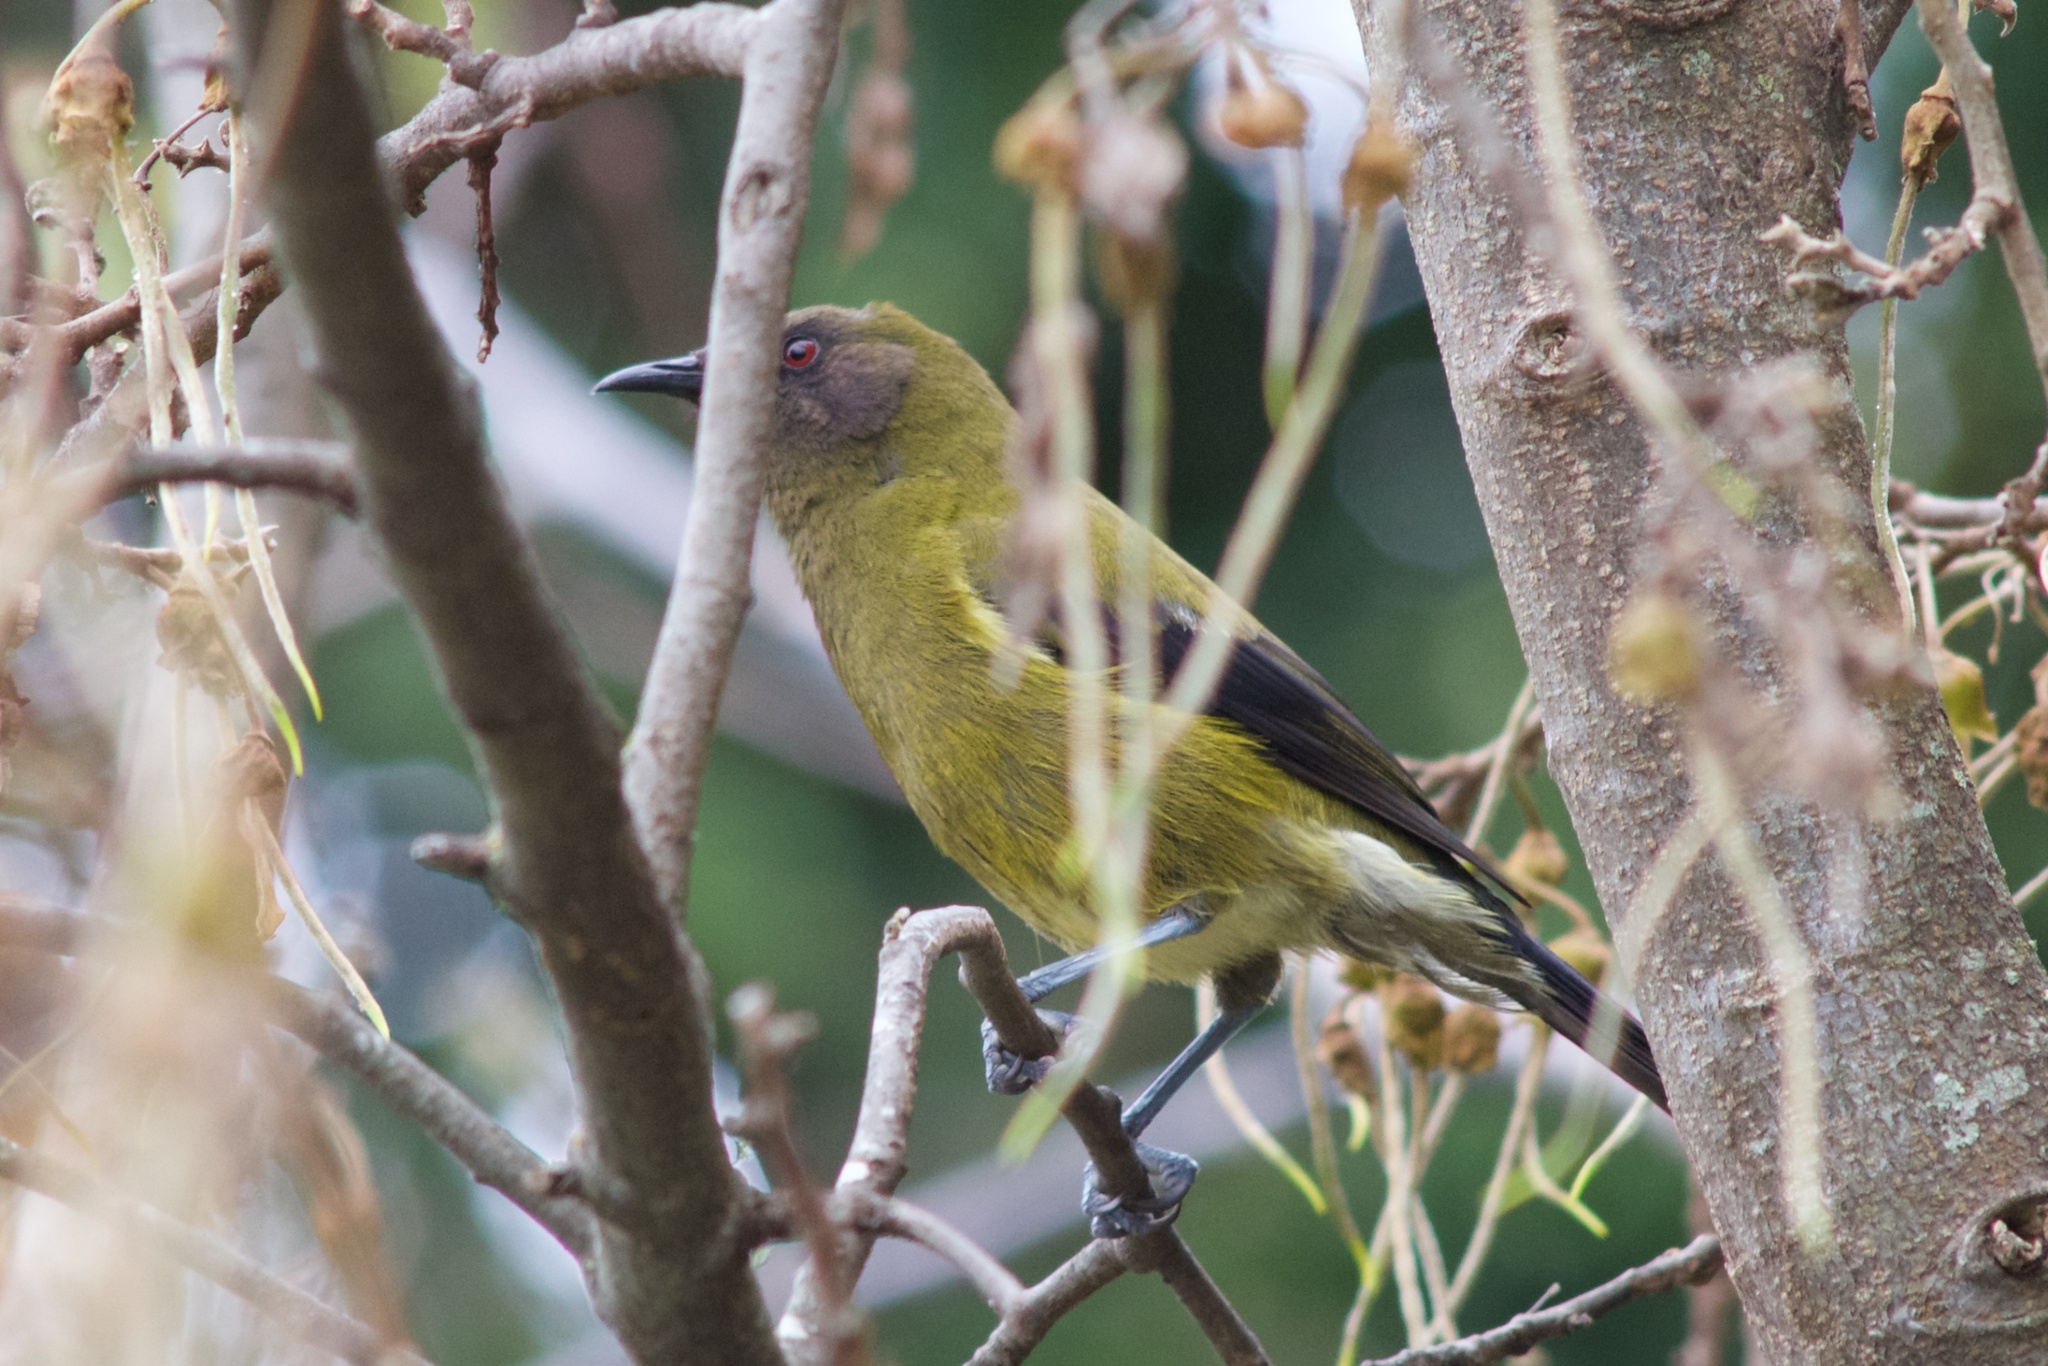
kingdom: Animalia
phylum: Chordata
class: Aves
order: Passeriformes
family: Meliphagidae
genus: Anthornis
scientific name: Anthornis melanura
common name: New zealand bellbird
